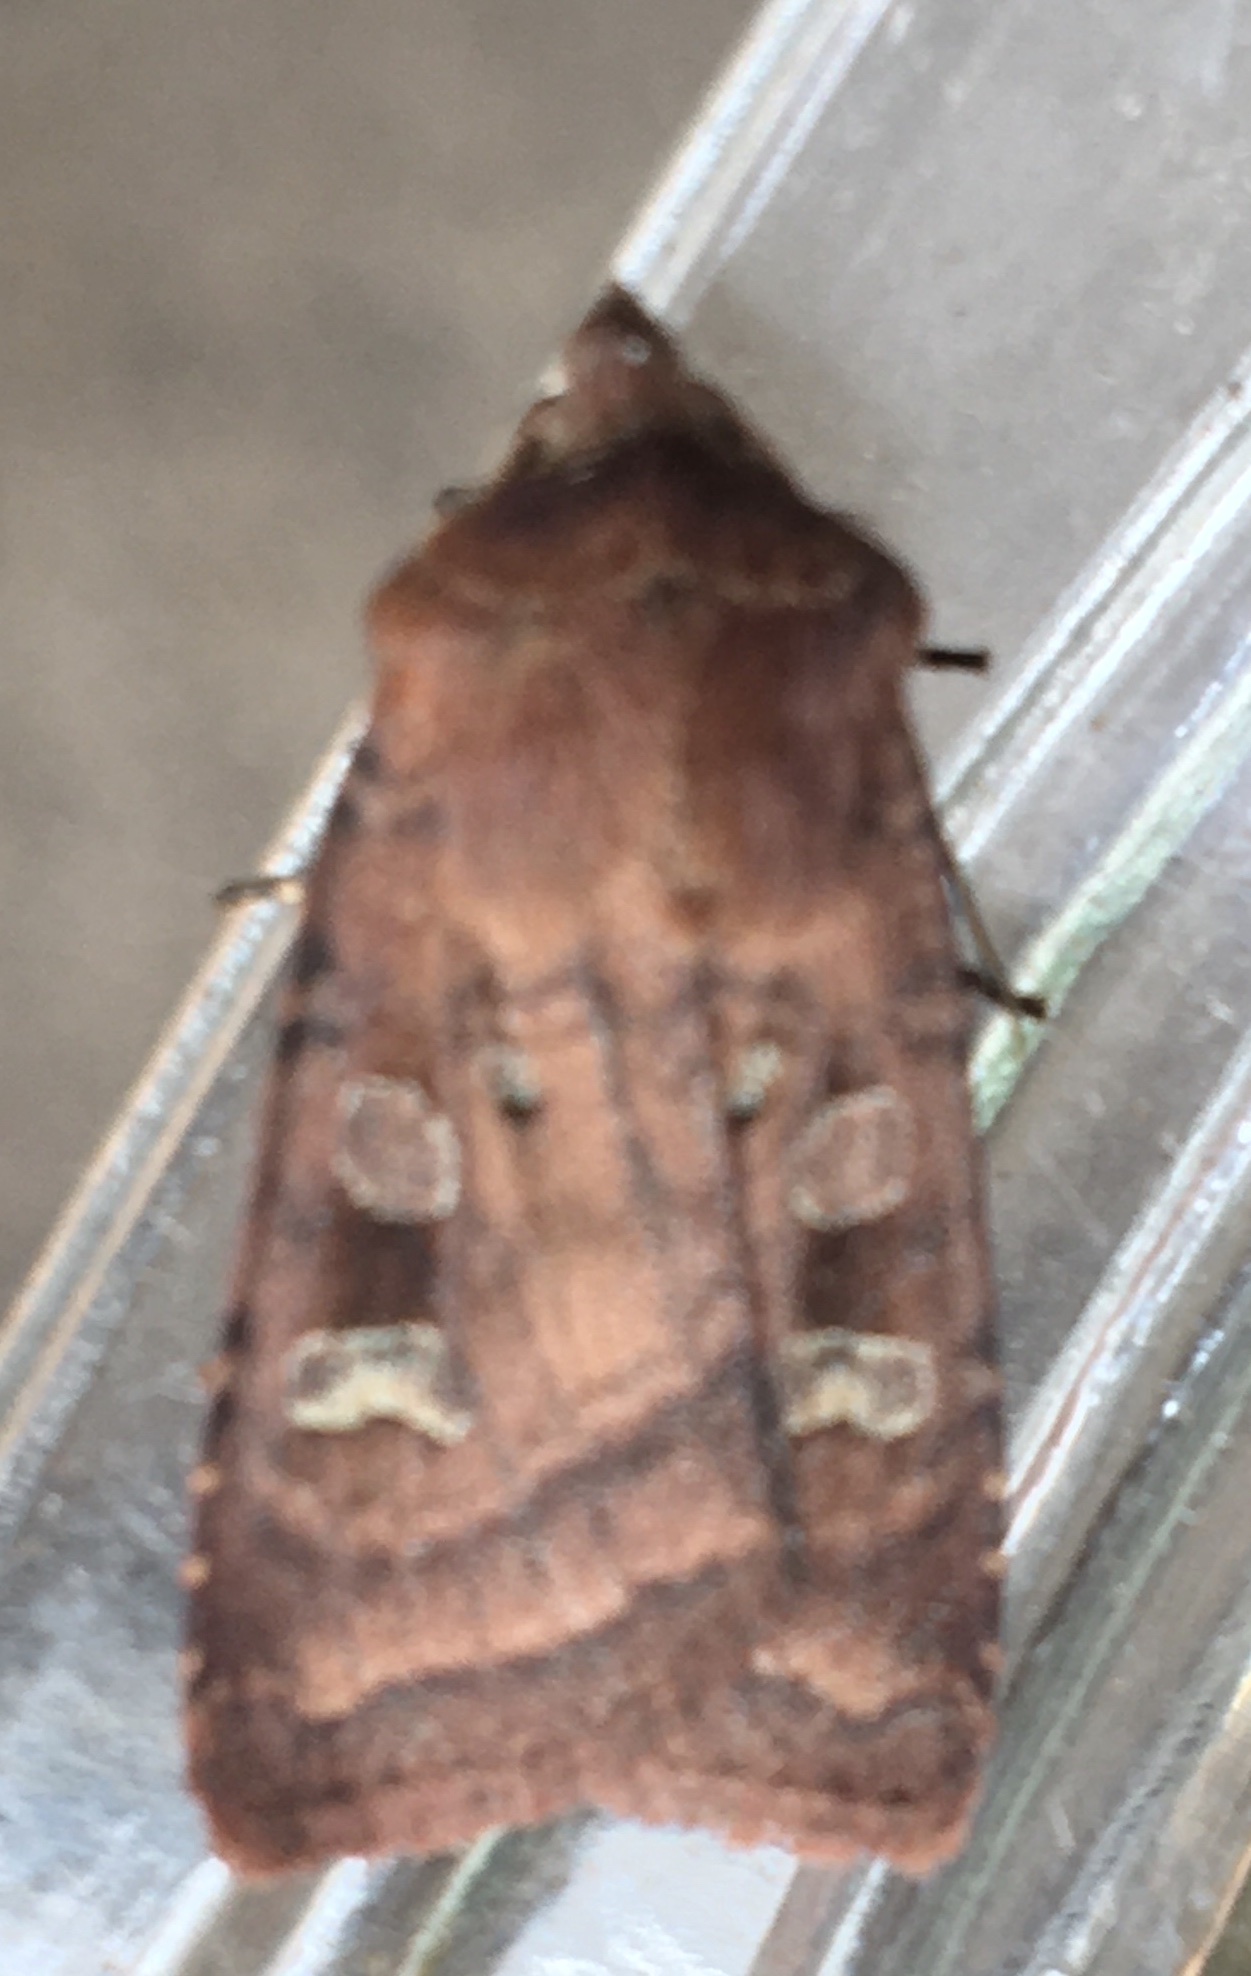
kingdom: Animalia
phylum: Arthropoda
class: Insecta
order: Lepidoptera
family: Noctuidae
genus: Diarsia
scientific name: Diarsia rubi
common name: Small square-spot
